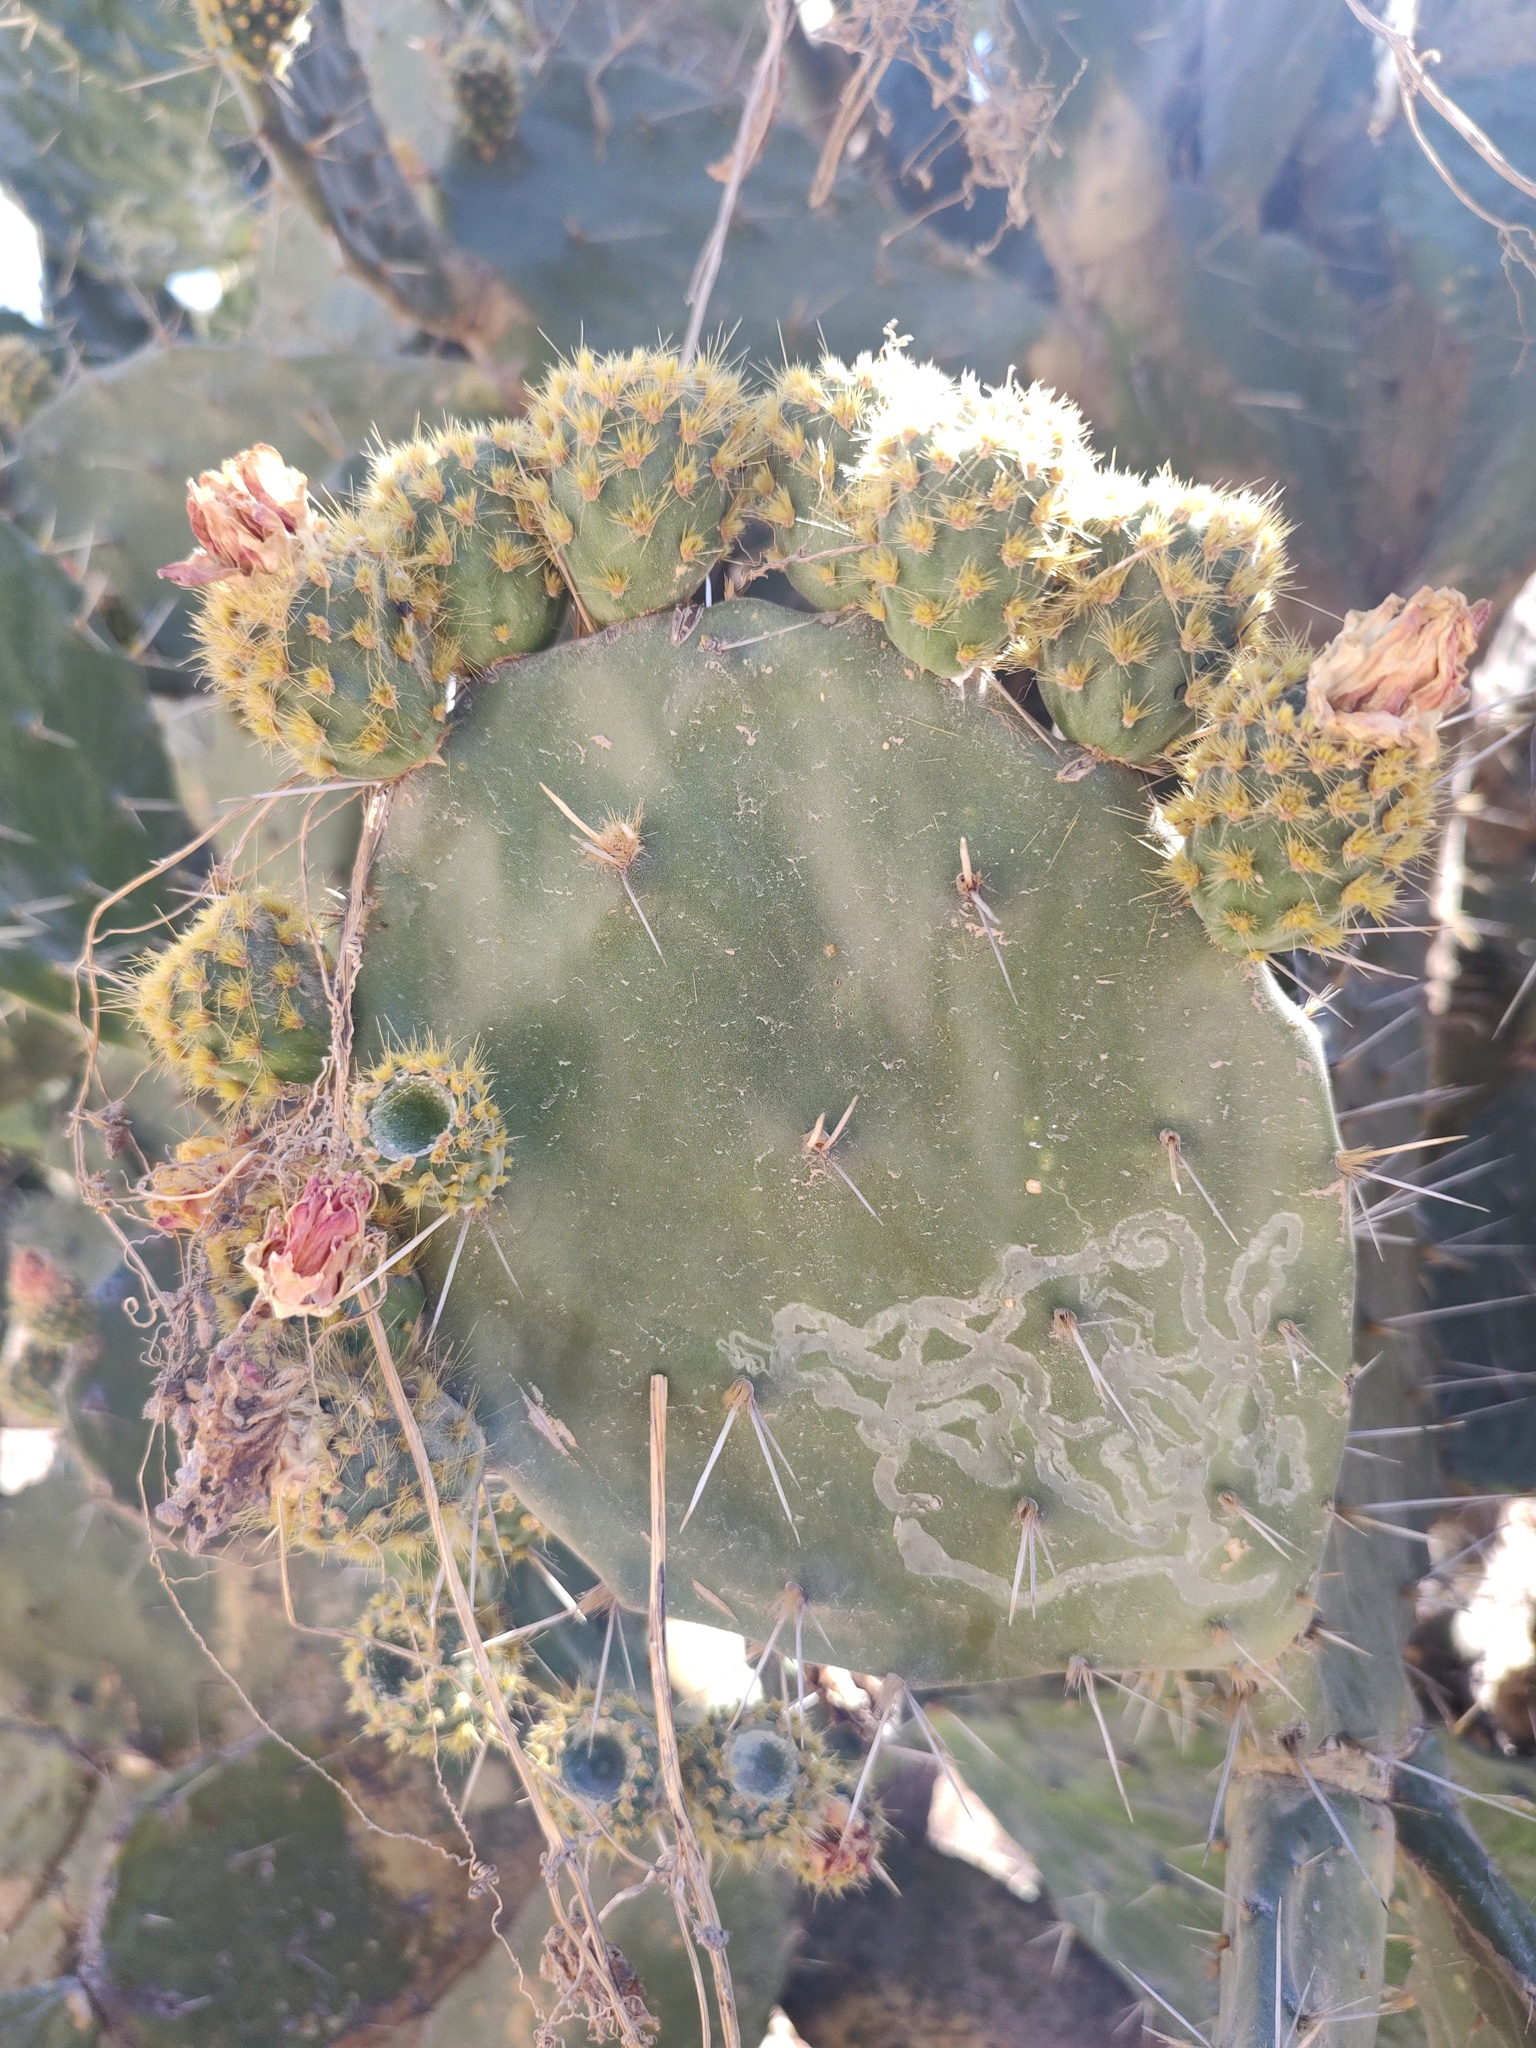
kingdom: Plantae
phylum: Tracheophyta
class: Magnoliopsida
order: Caryophyllales
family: Cactaceae
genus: Opuntia
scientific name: Opuntia tomentosa
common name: Woollyjoint pricklypear
